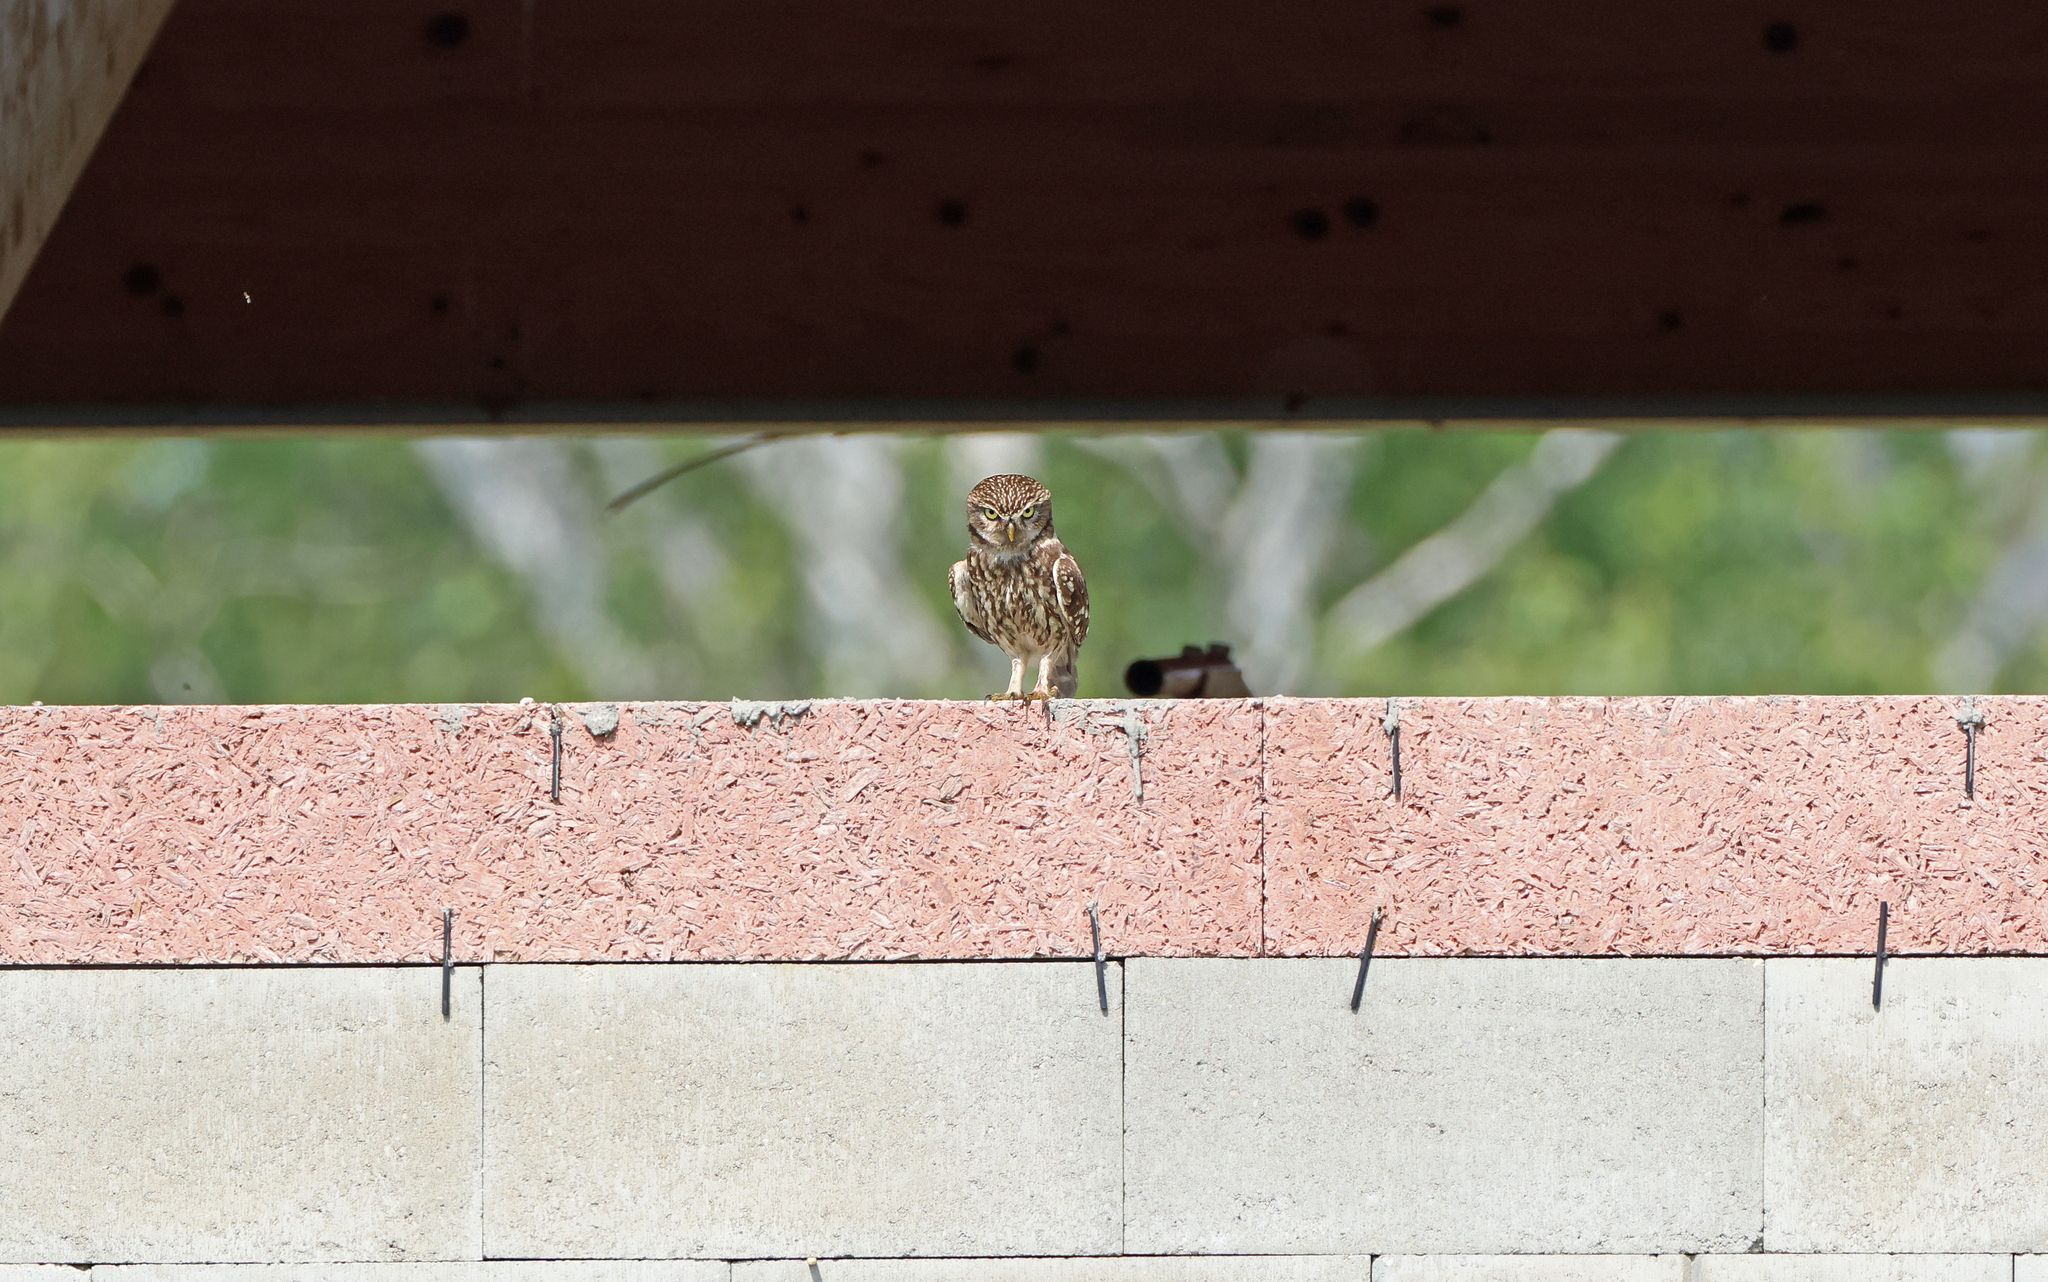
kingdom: Animalia
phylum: Chordata
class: Aves
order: Strigiformes
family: Strigidae
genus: Athene
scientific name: Athene noctua
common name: Little owl
